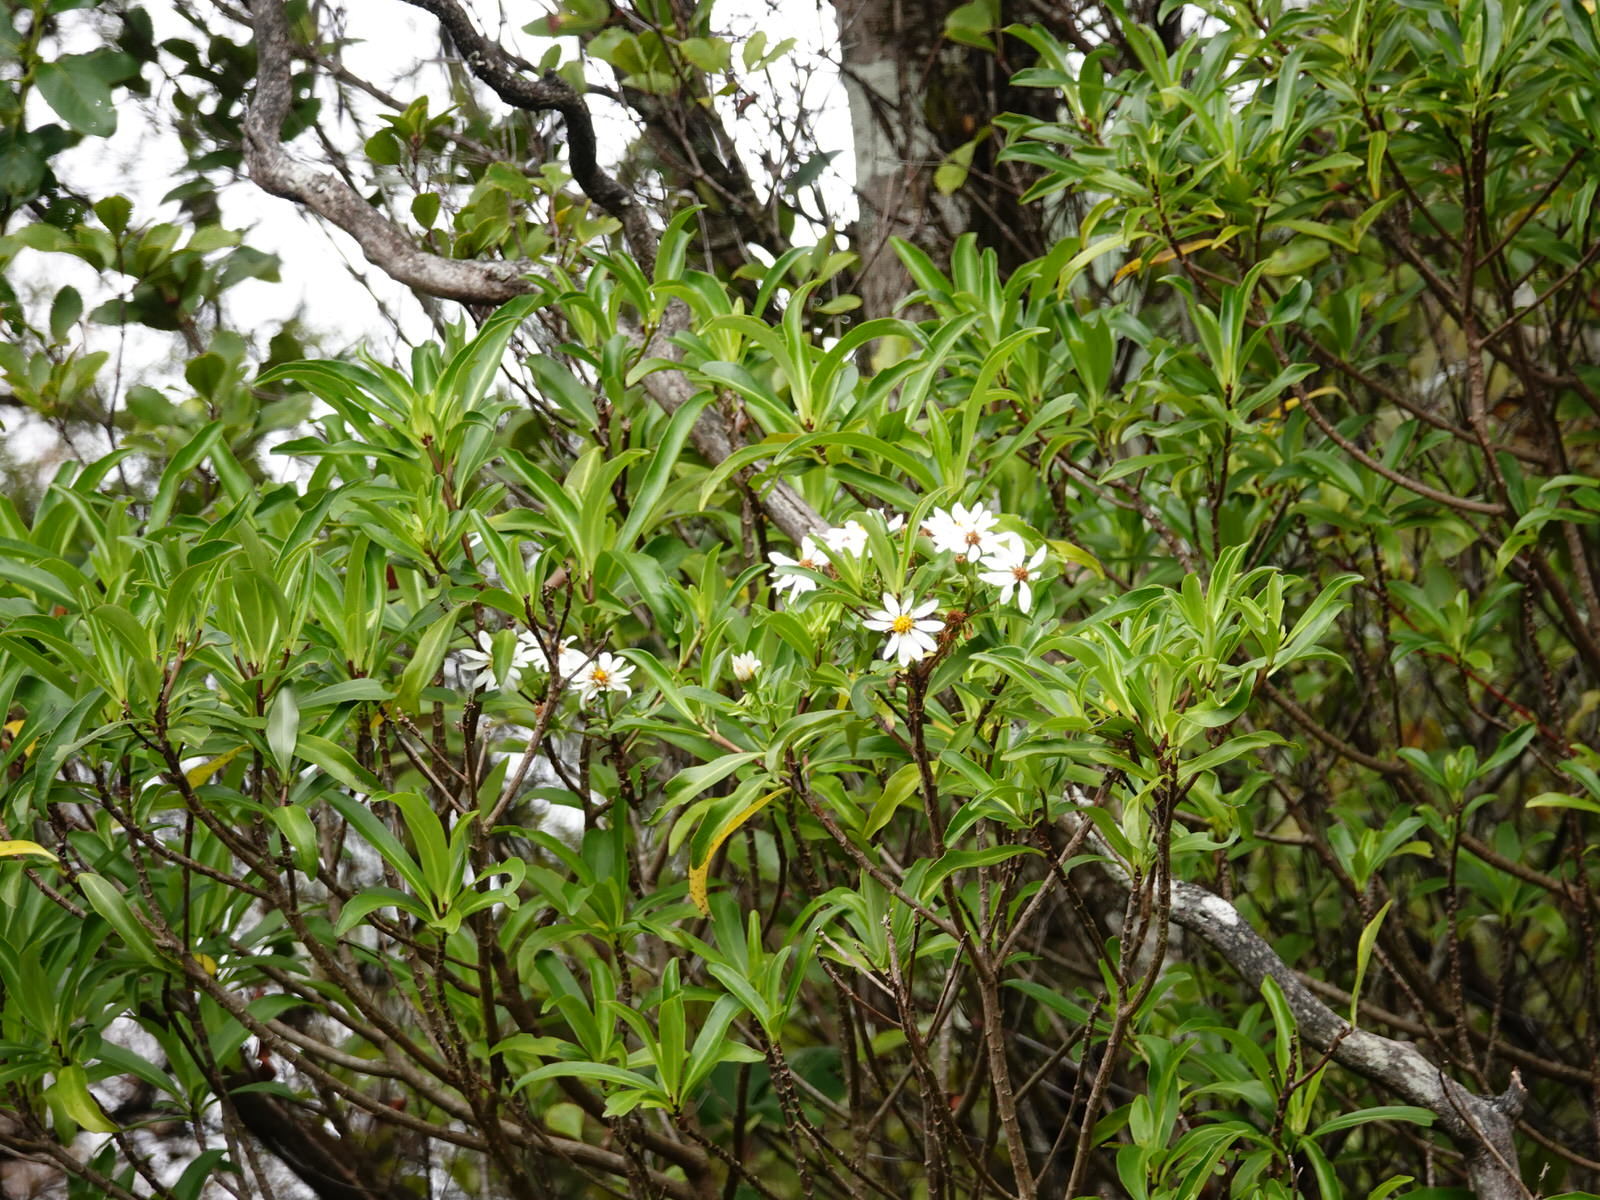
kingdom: Plantae
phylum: Tracheophyta
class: Magnoliopsida
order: Asterales
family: Asteraceae
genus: Brachyglottis
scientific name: Brachyglottis kirkii
